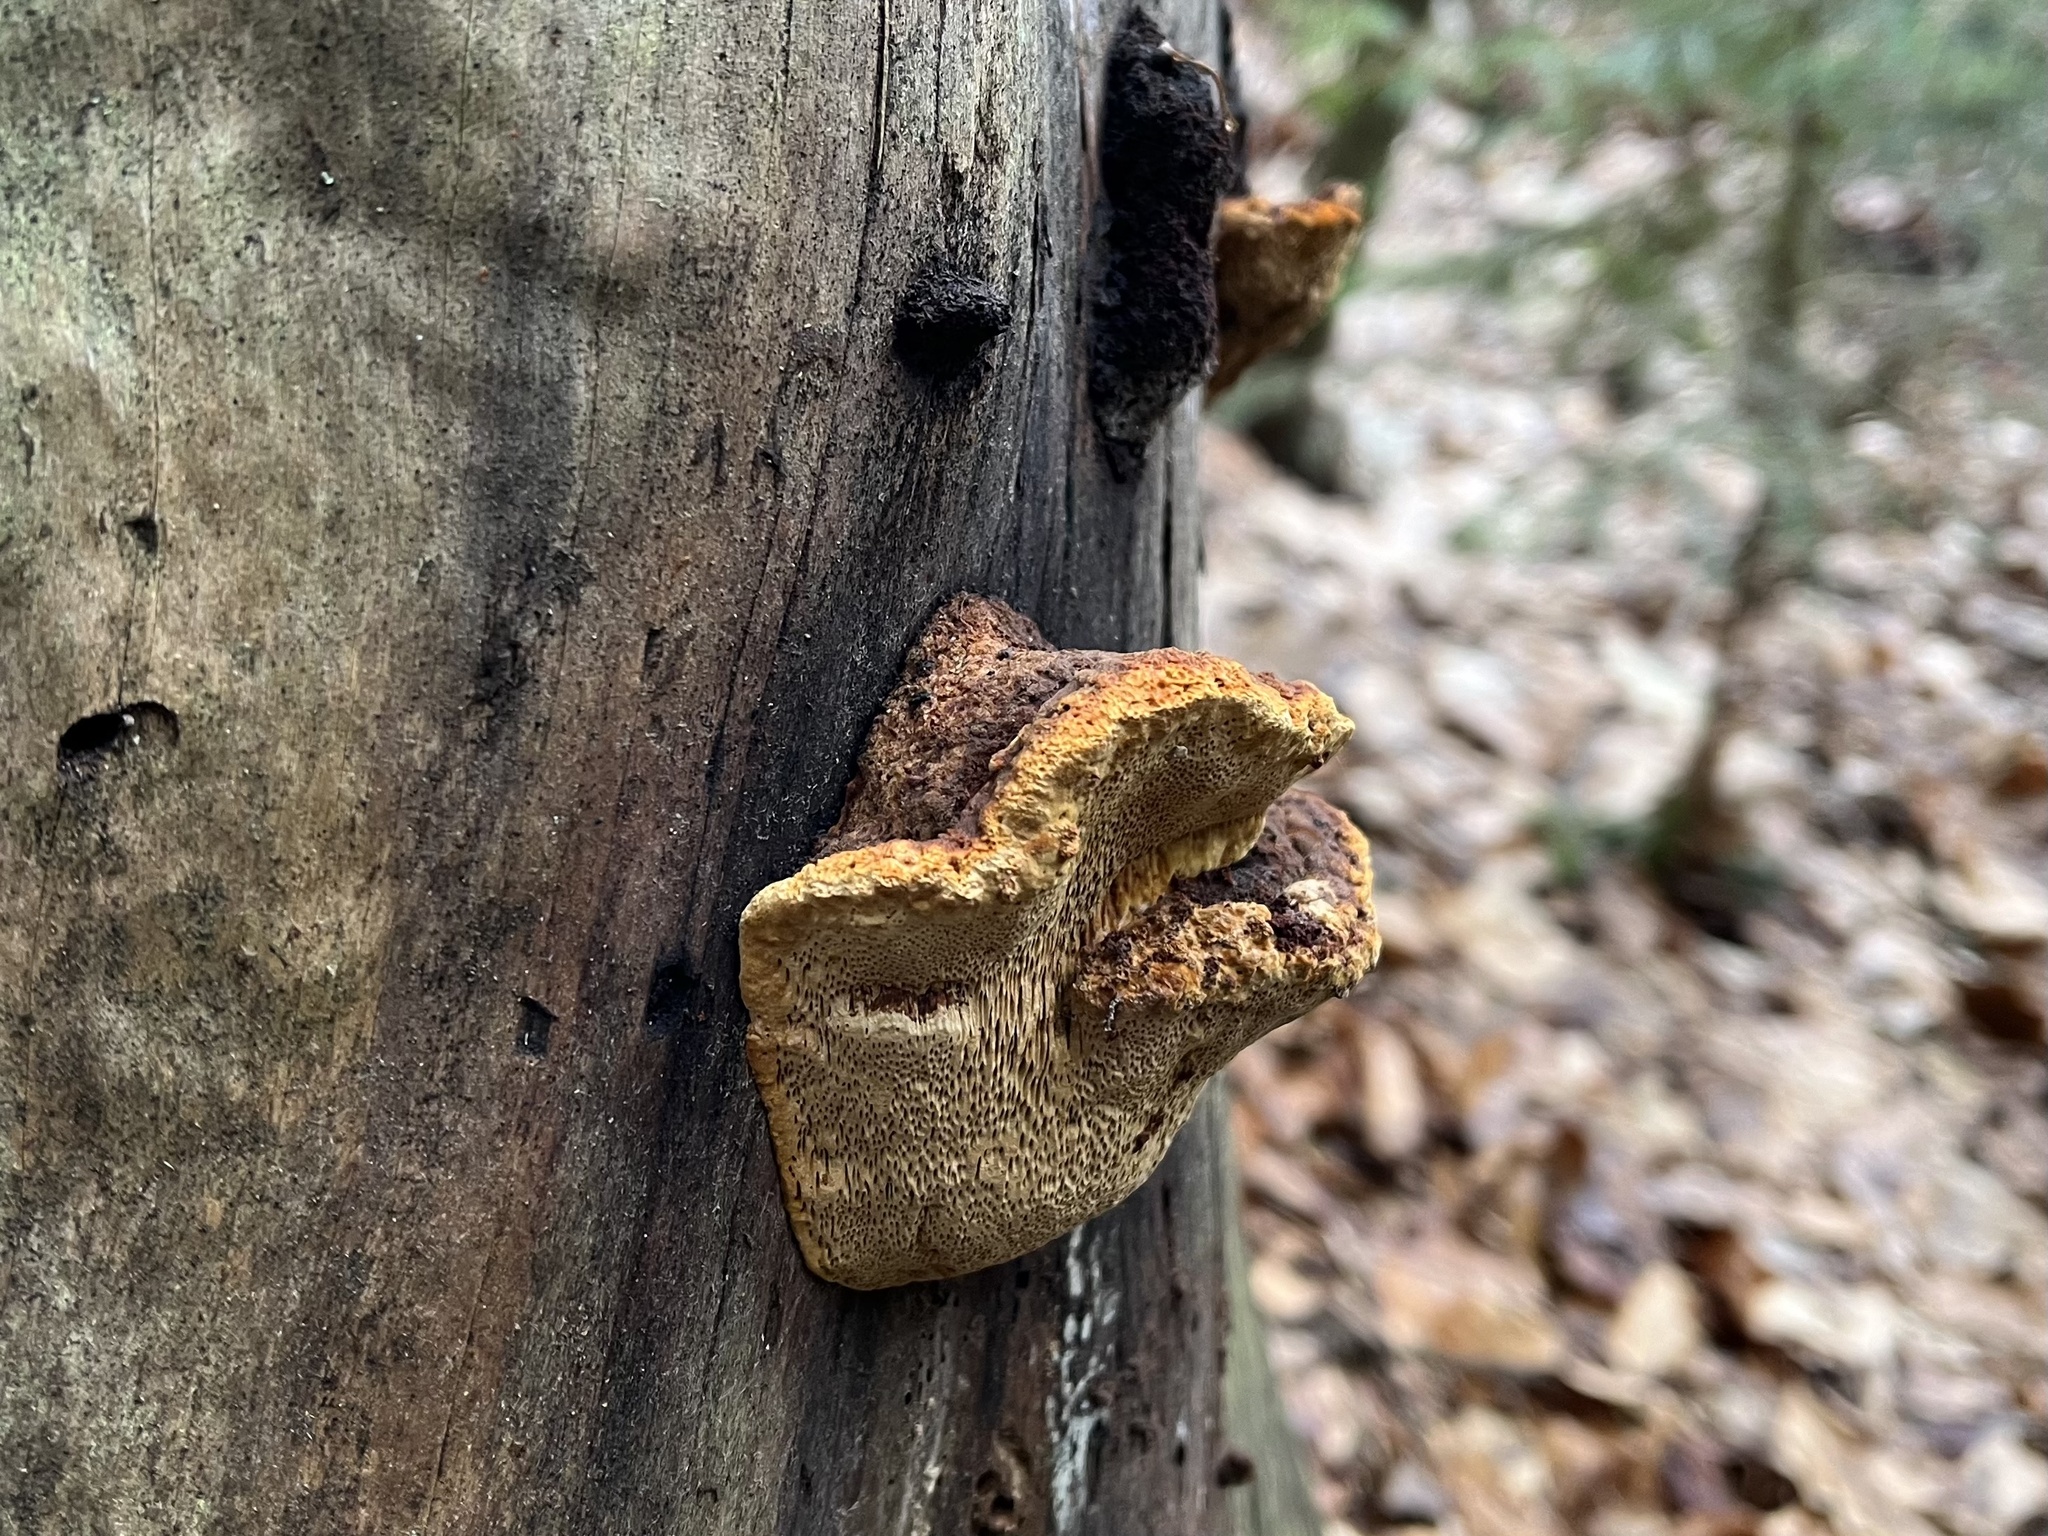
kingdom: Fungi
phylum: Basidiomycota
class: Agaricomycetes
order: Gloeophyllales
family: Gloeophyllaceae
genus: Gloeophyllum
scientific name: Gloeophyllum odoratum
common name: Anise mazegill
